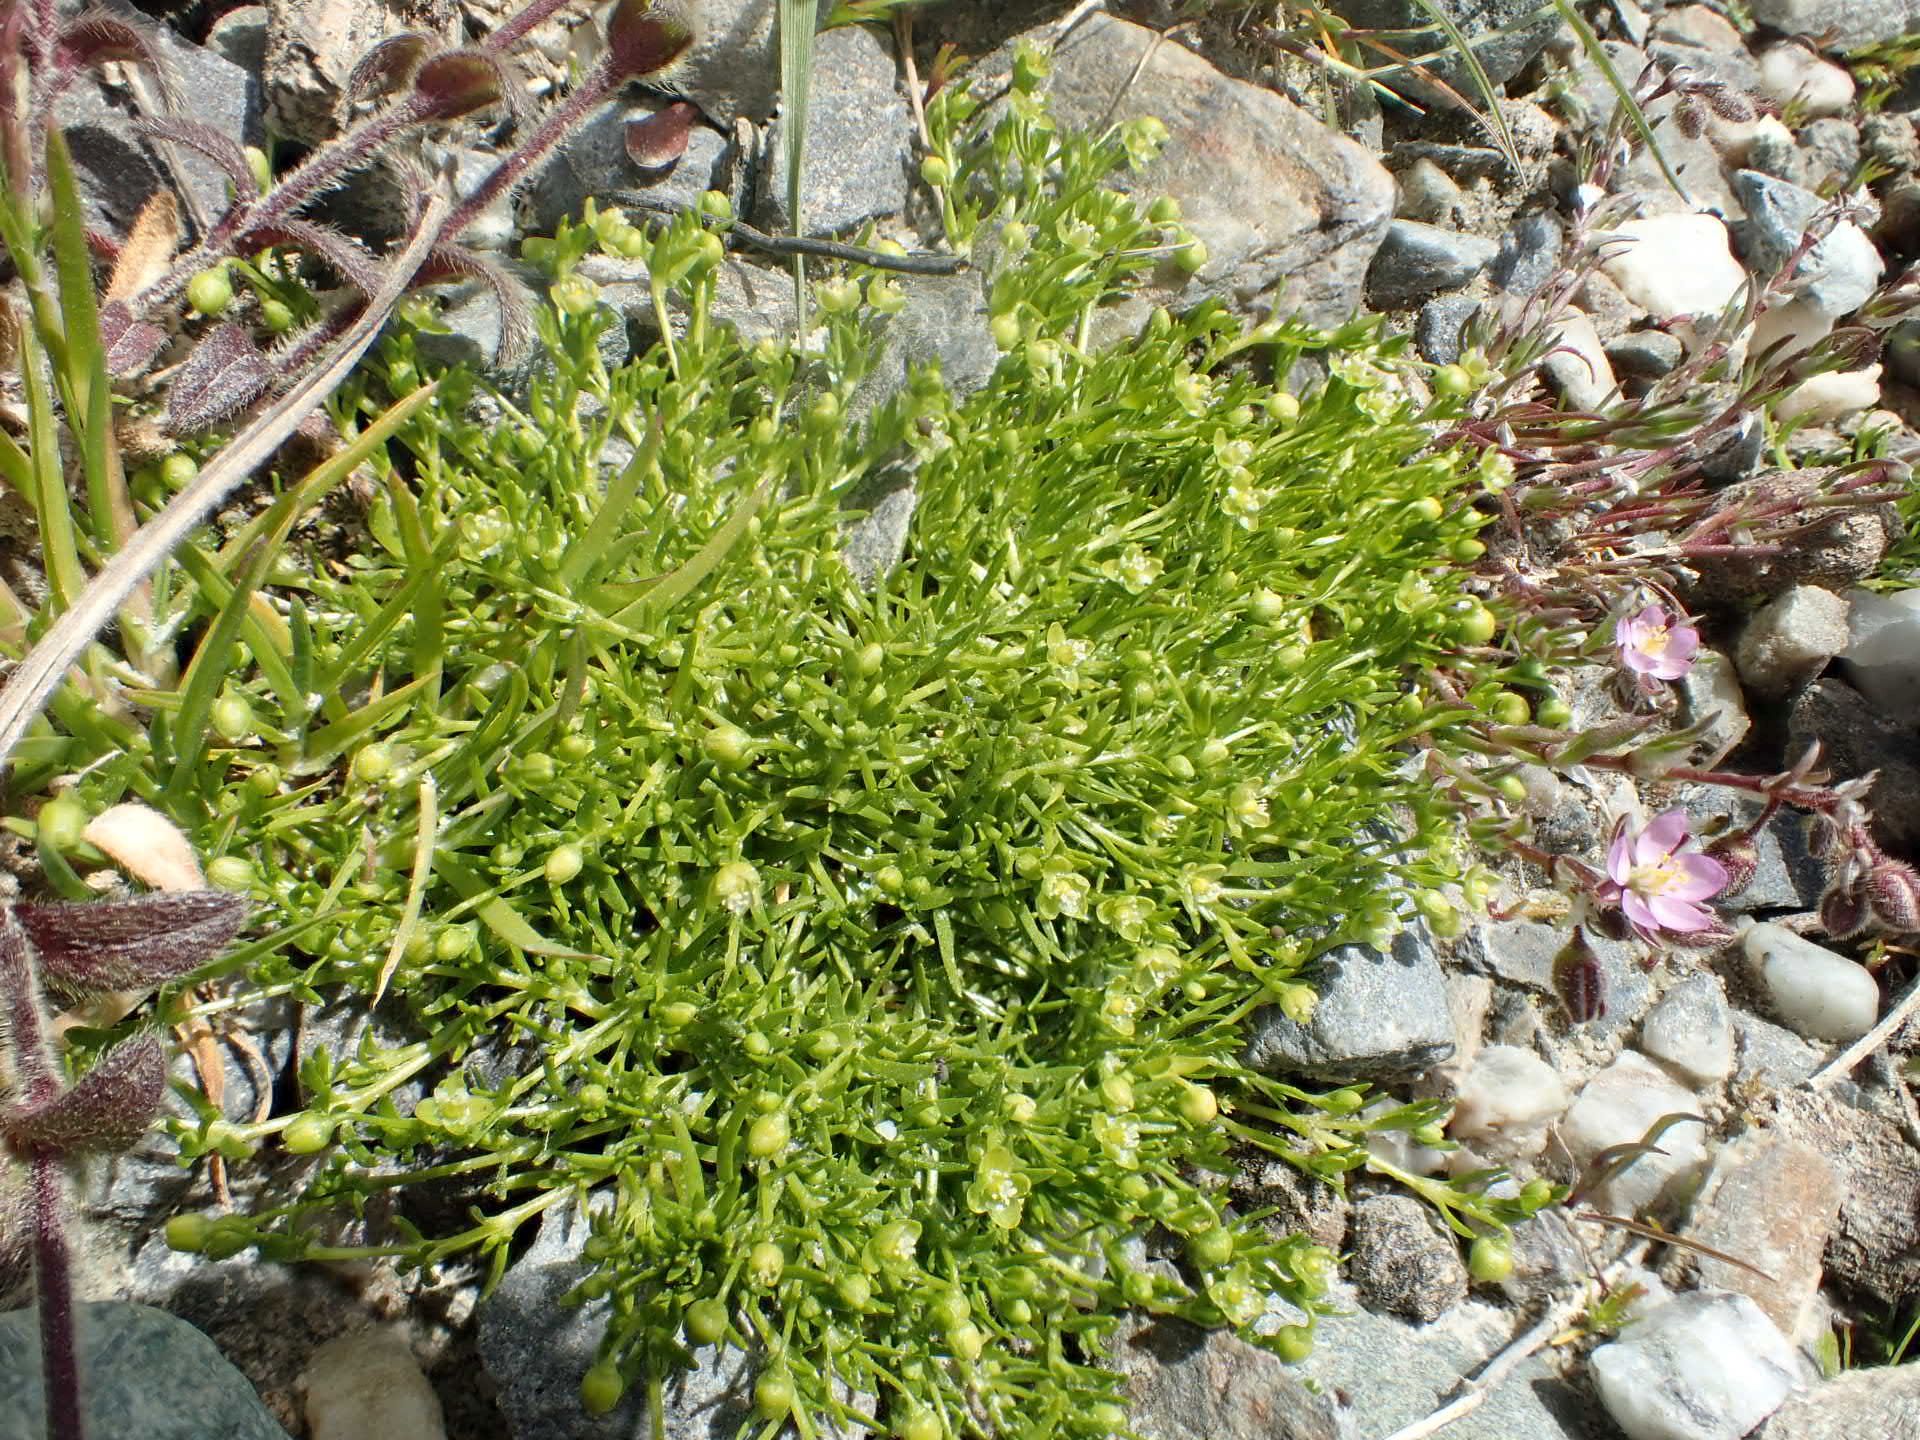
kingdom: Plantae
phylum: Tracheophyta
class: Magnoliopsida
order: Caryophyllales
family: Caryophyllaceae
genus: Sagina
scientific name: Sagina procumbens
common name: Procumbent pearlwort
